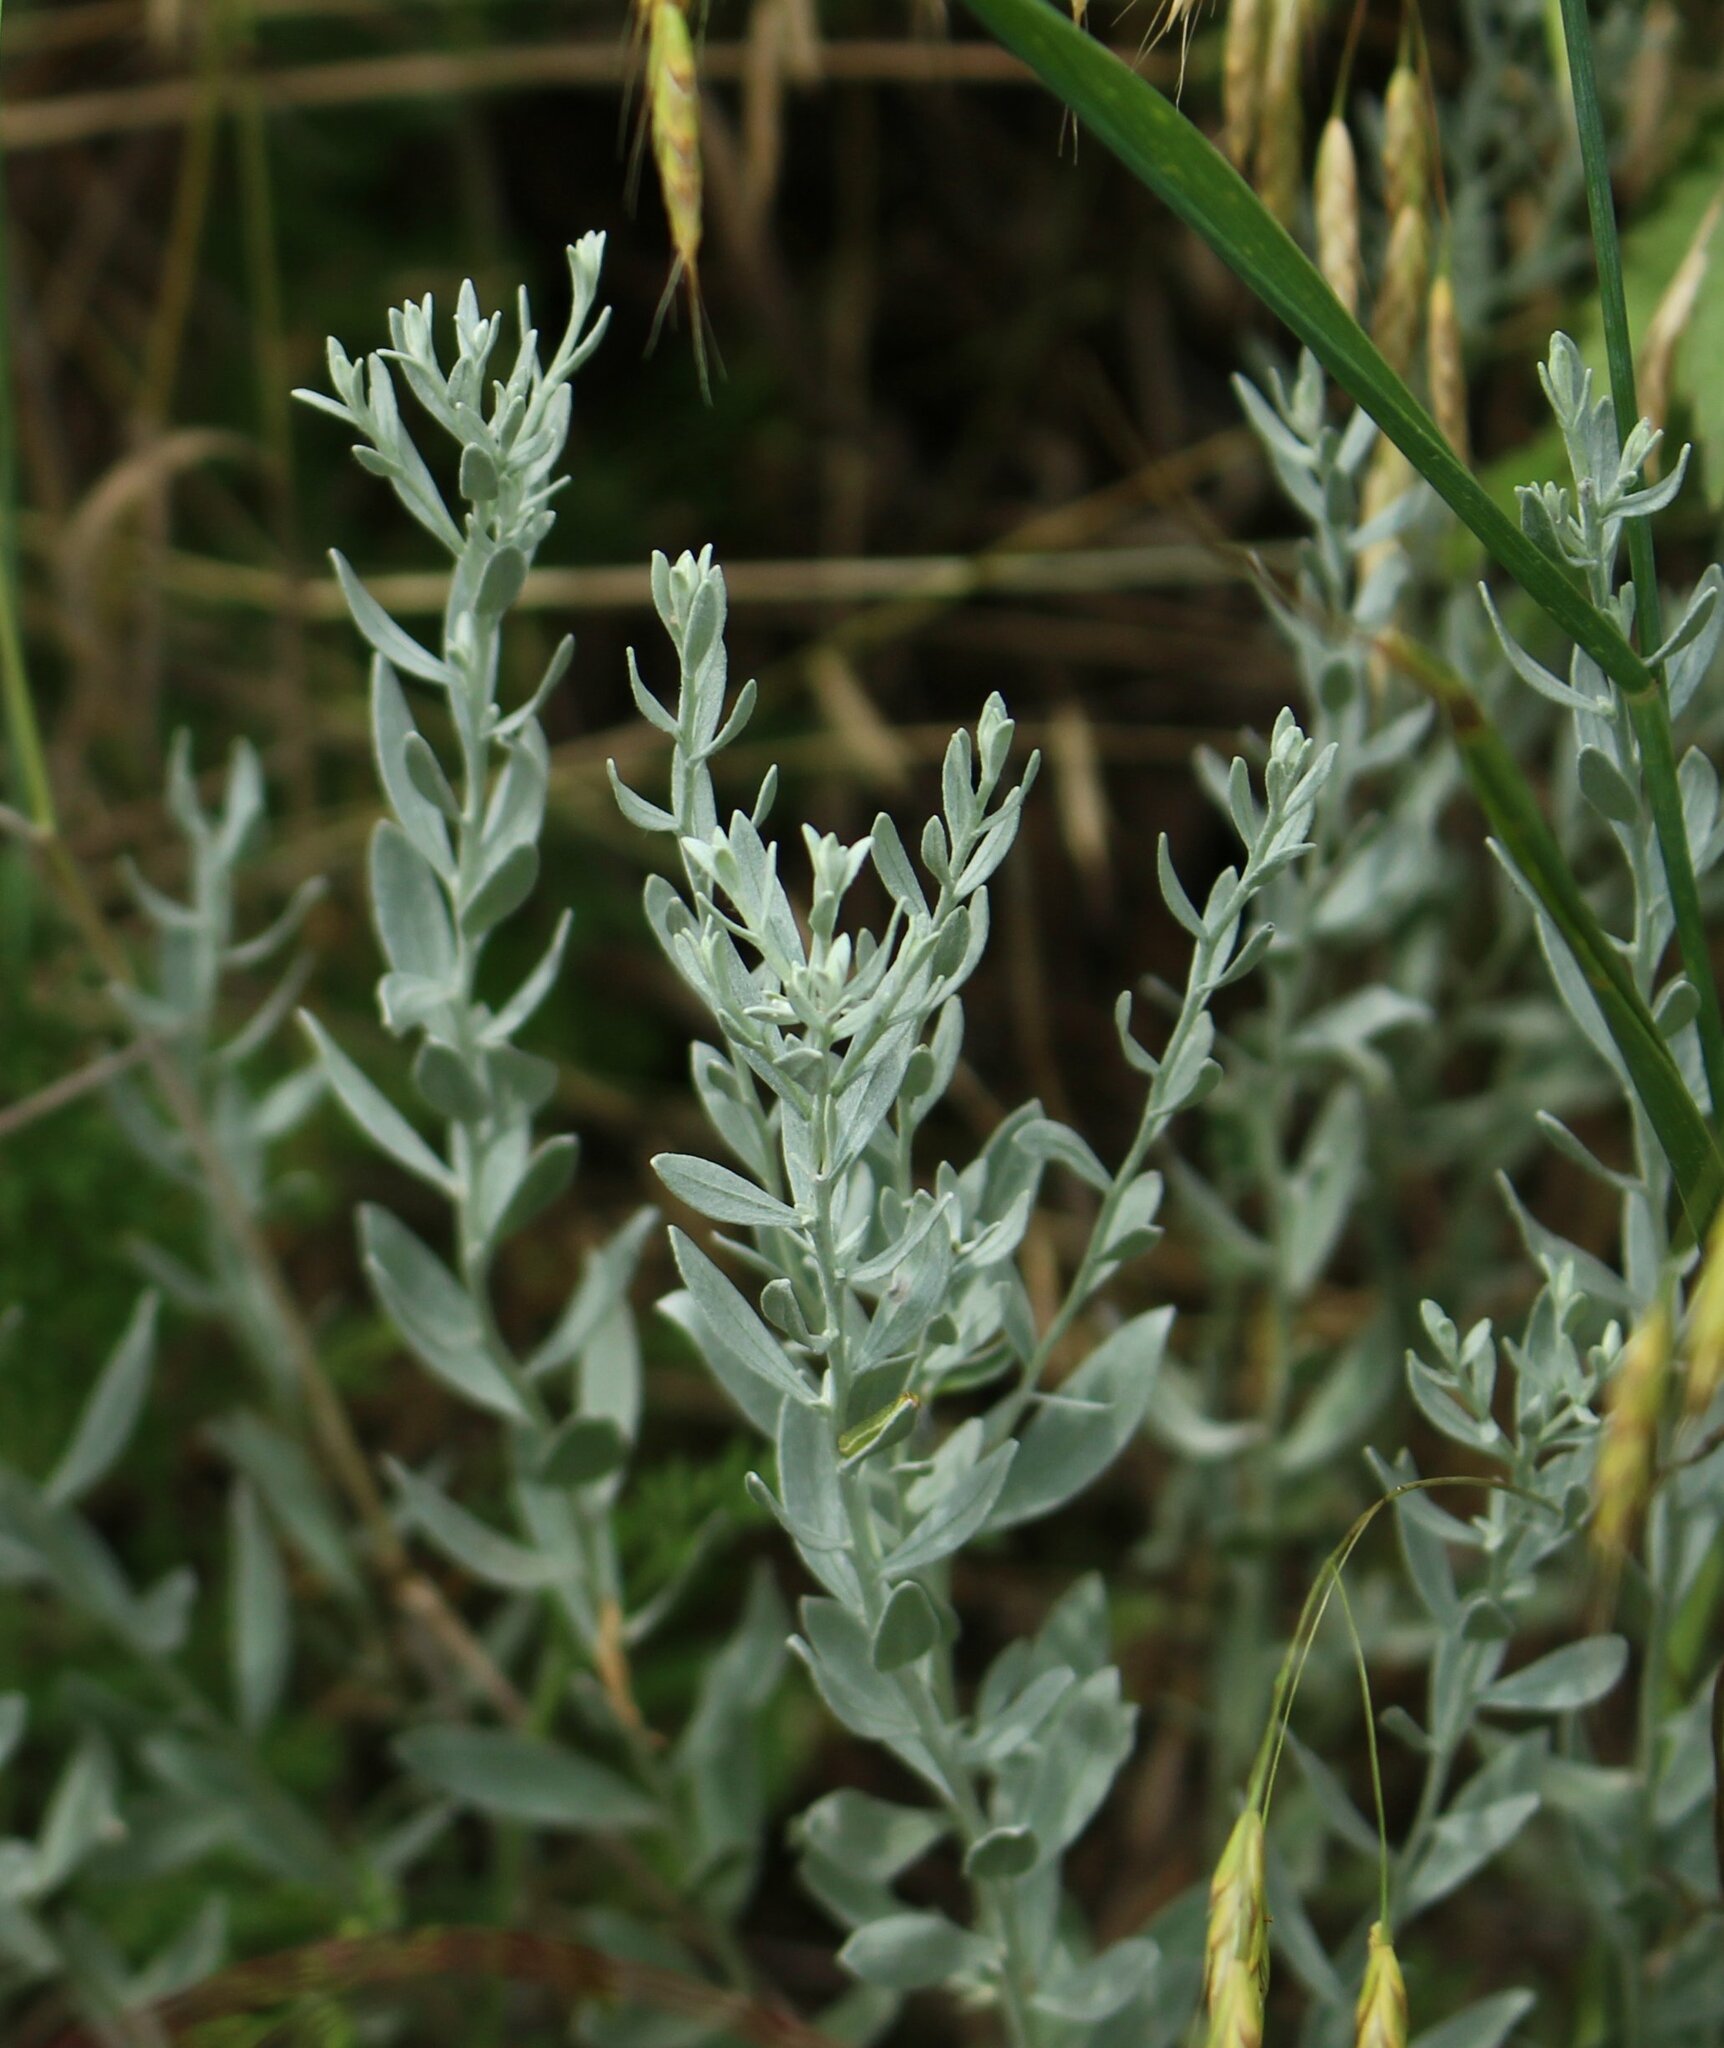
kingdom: Plantae
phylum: Tracheophyta
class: Magnoliopsida
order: Asterales
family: Asteraceae
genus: Galatella
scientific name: Galatella villosa
